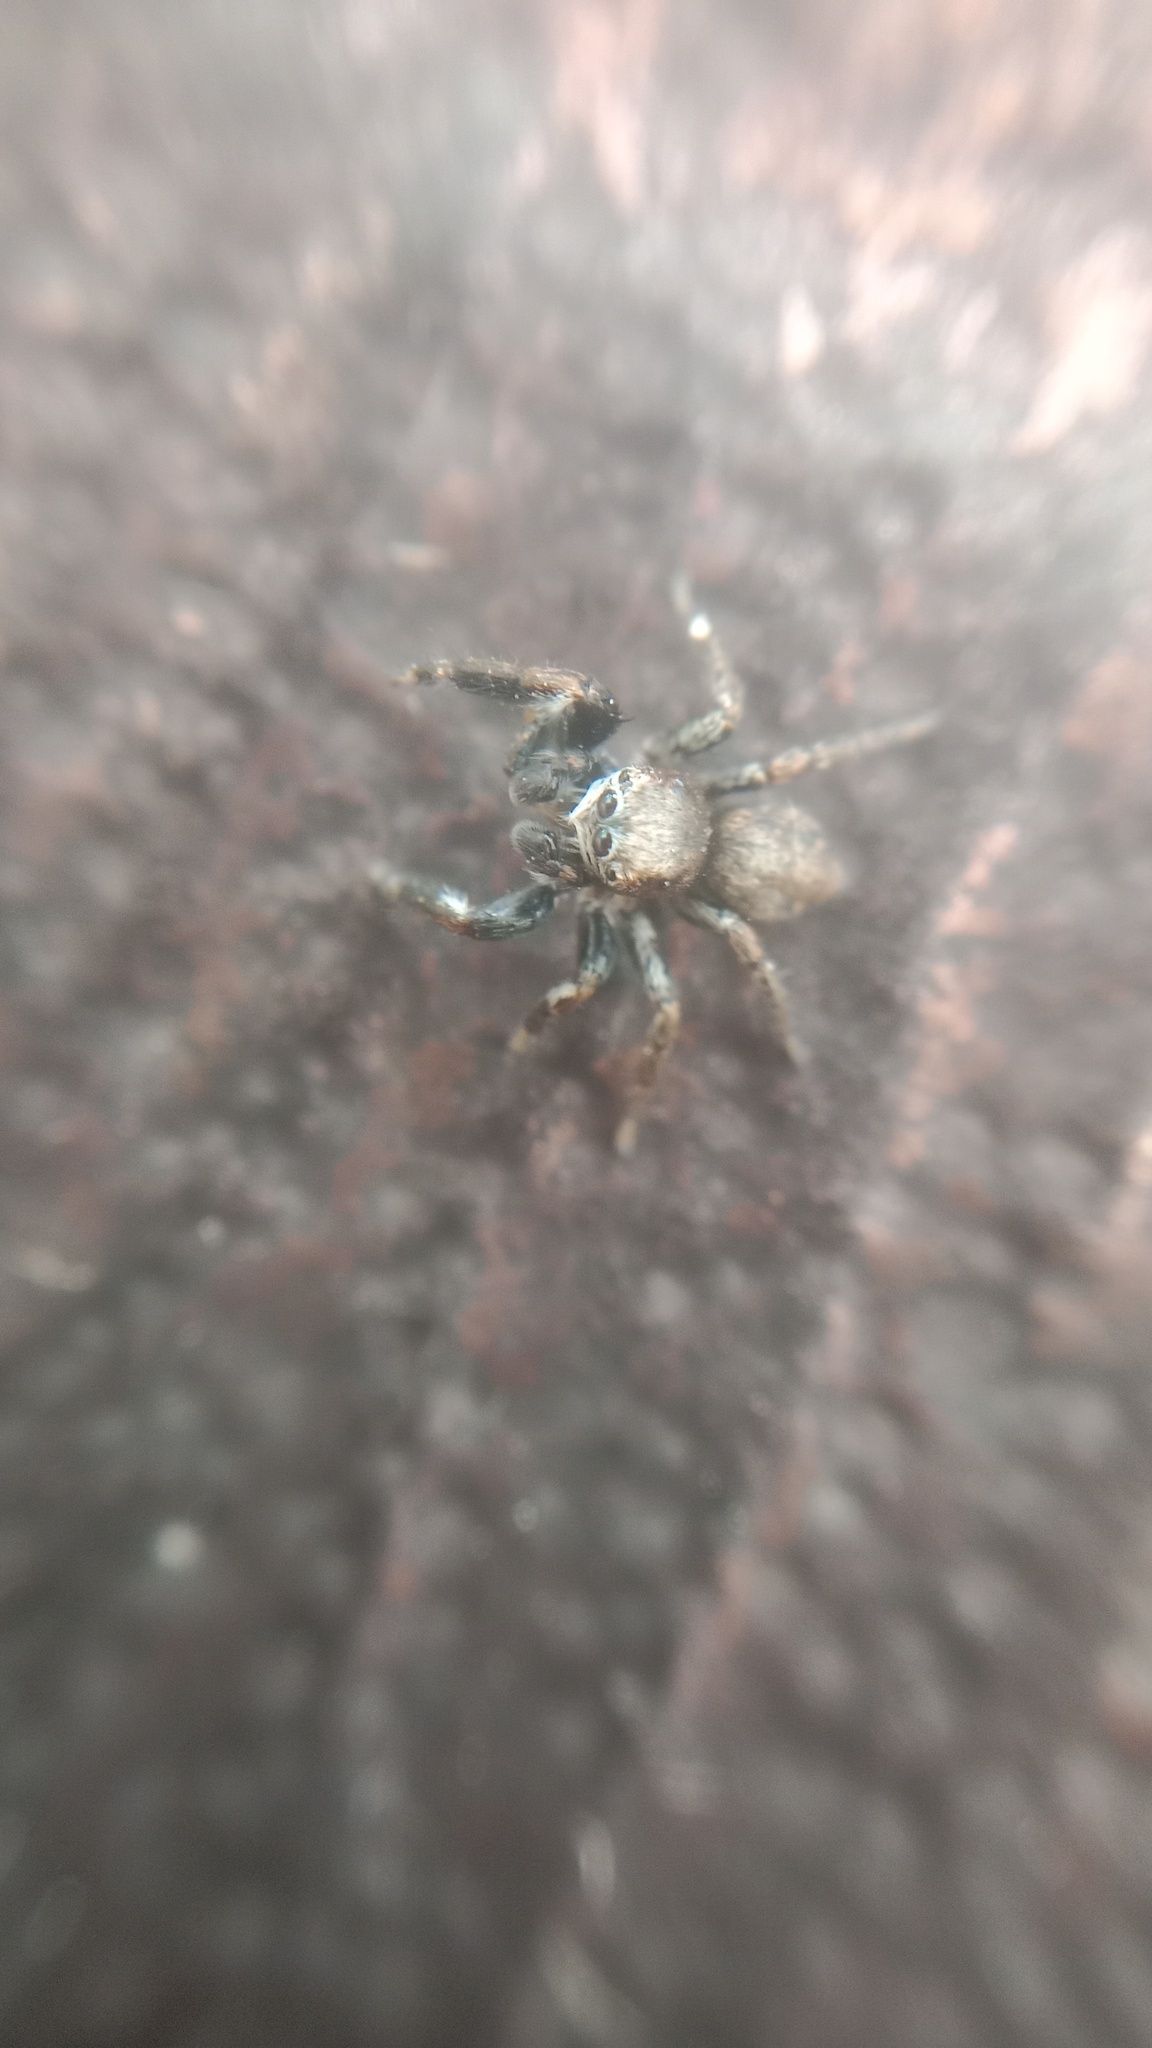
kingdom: Animalia
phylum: Arthropoda
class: Arachnida
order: Araneae
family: Salticidae
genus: Evarcha
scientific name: Evarcha arcuata
